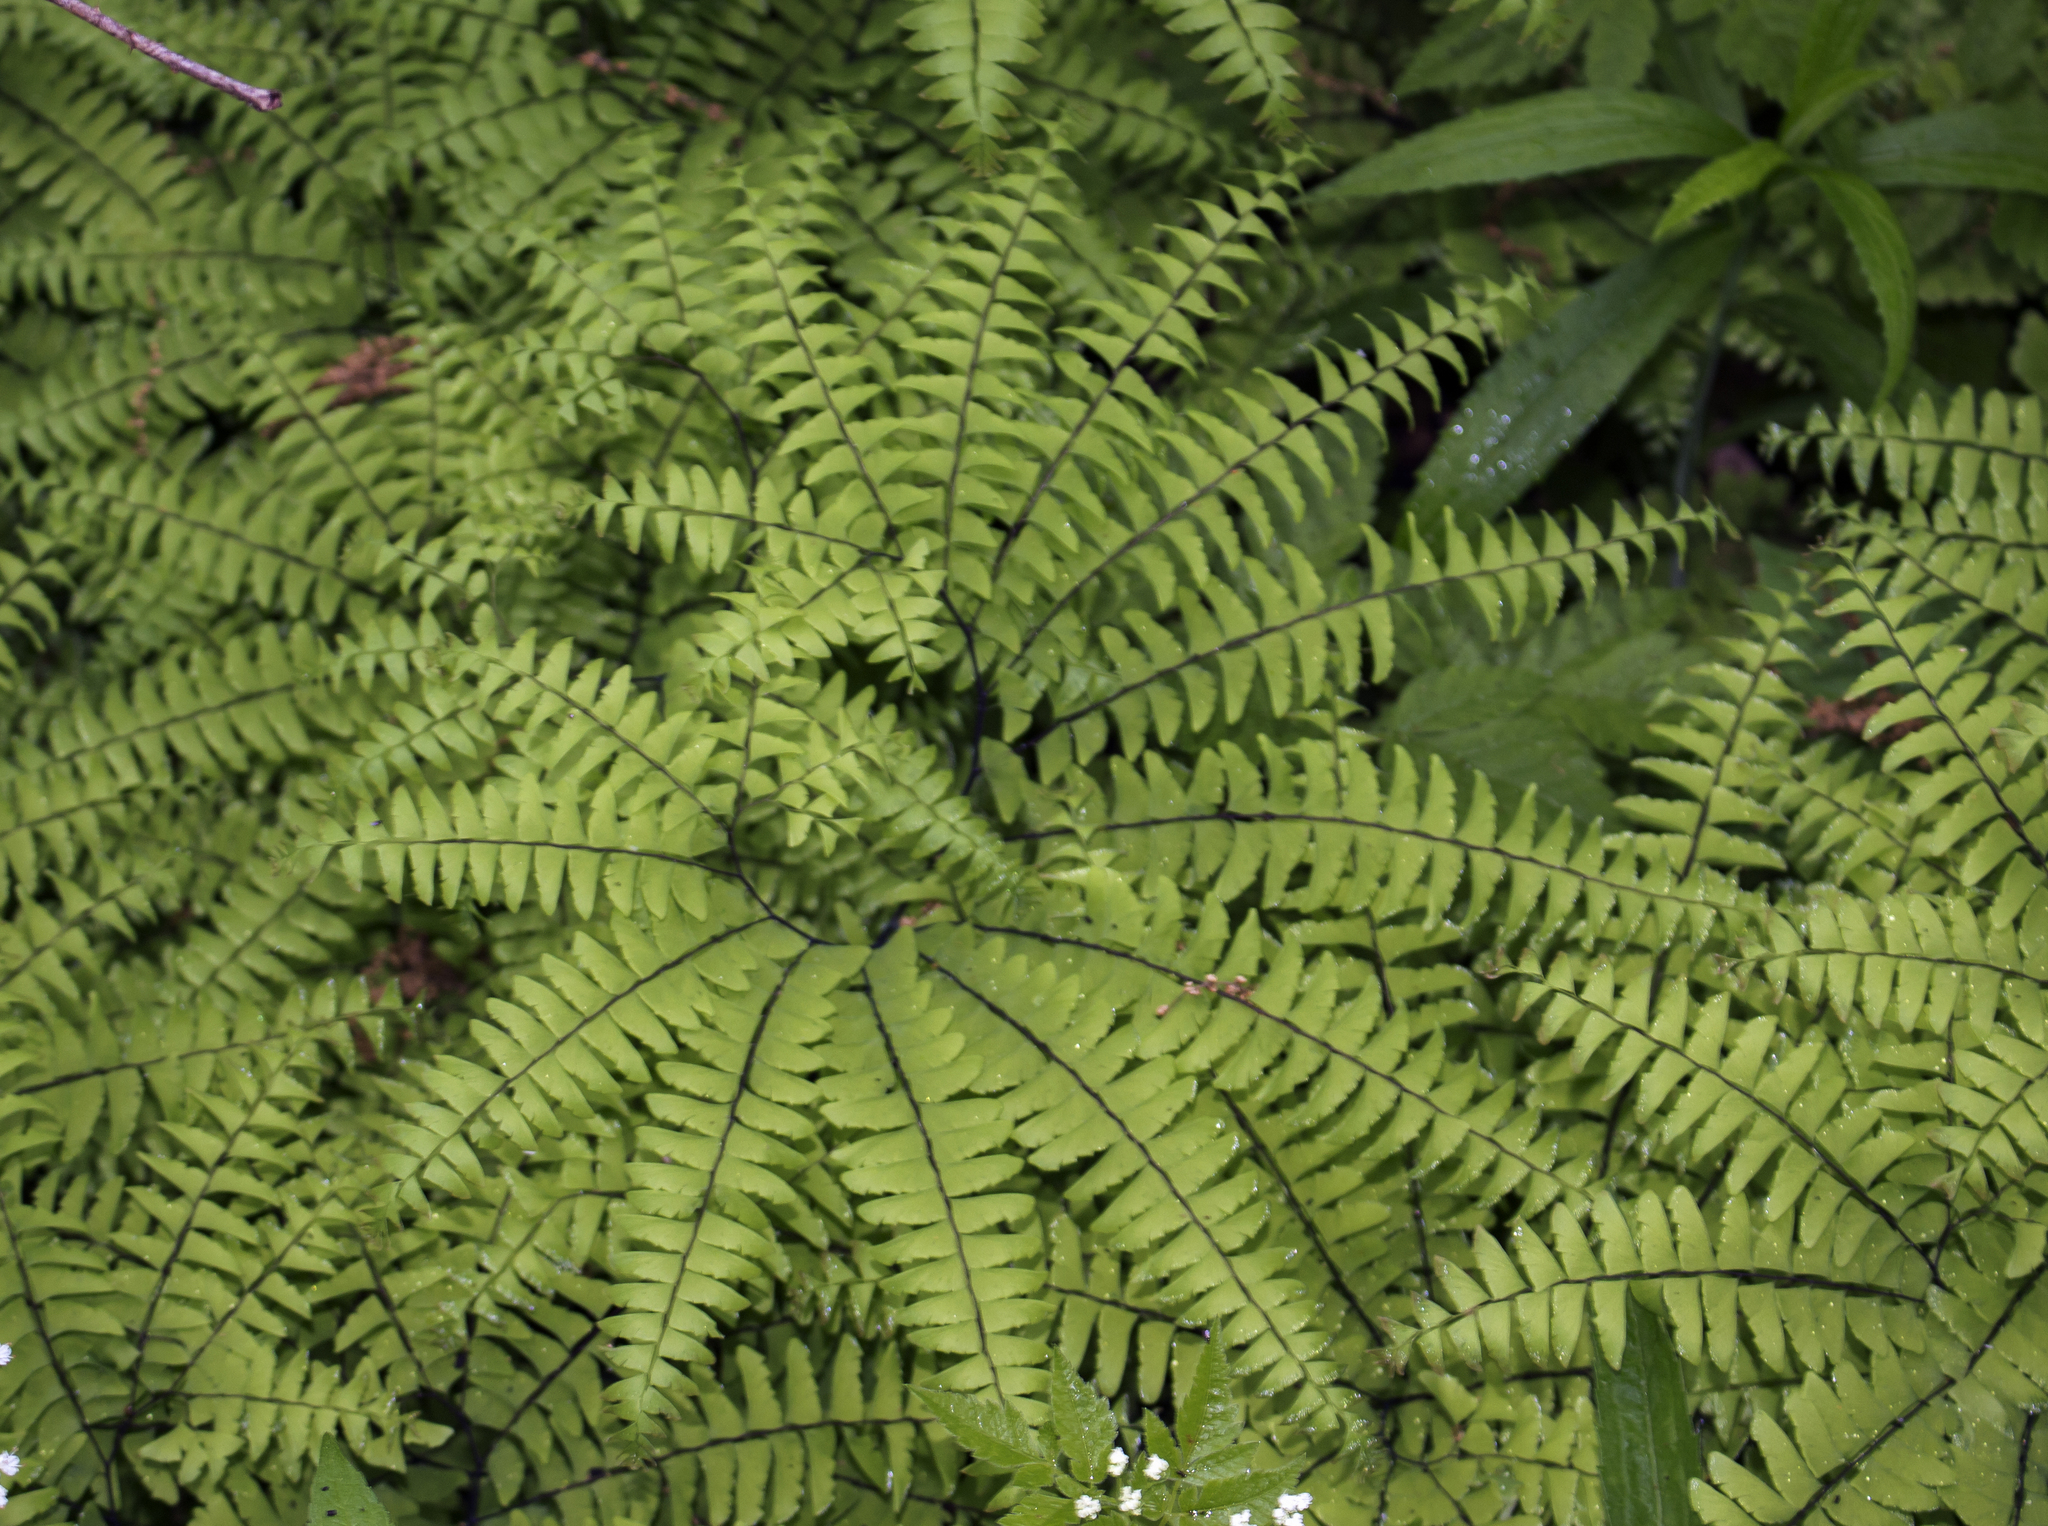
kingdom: Plantae
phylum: Tracheophyta
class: Polypodiopsida
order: Polypodiales
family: Pteridaceae
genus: Adiantum
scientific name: Adiantum pedatum
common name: Five-finger fern
